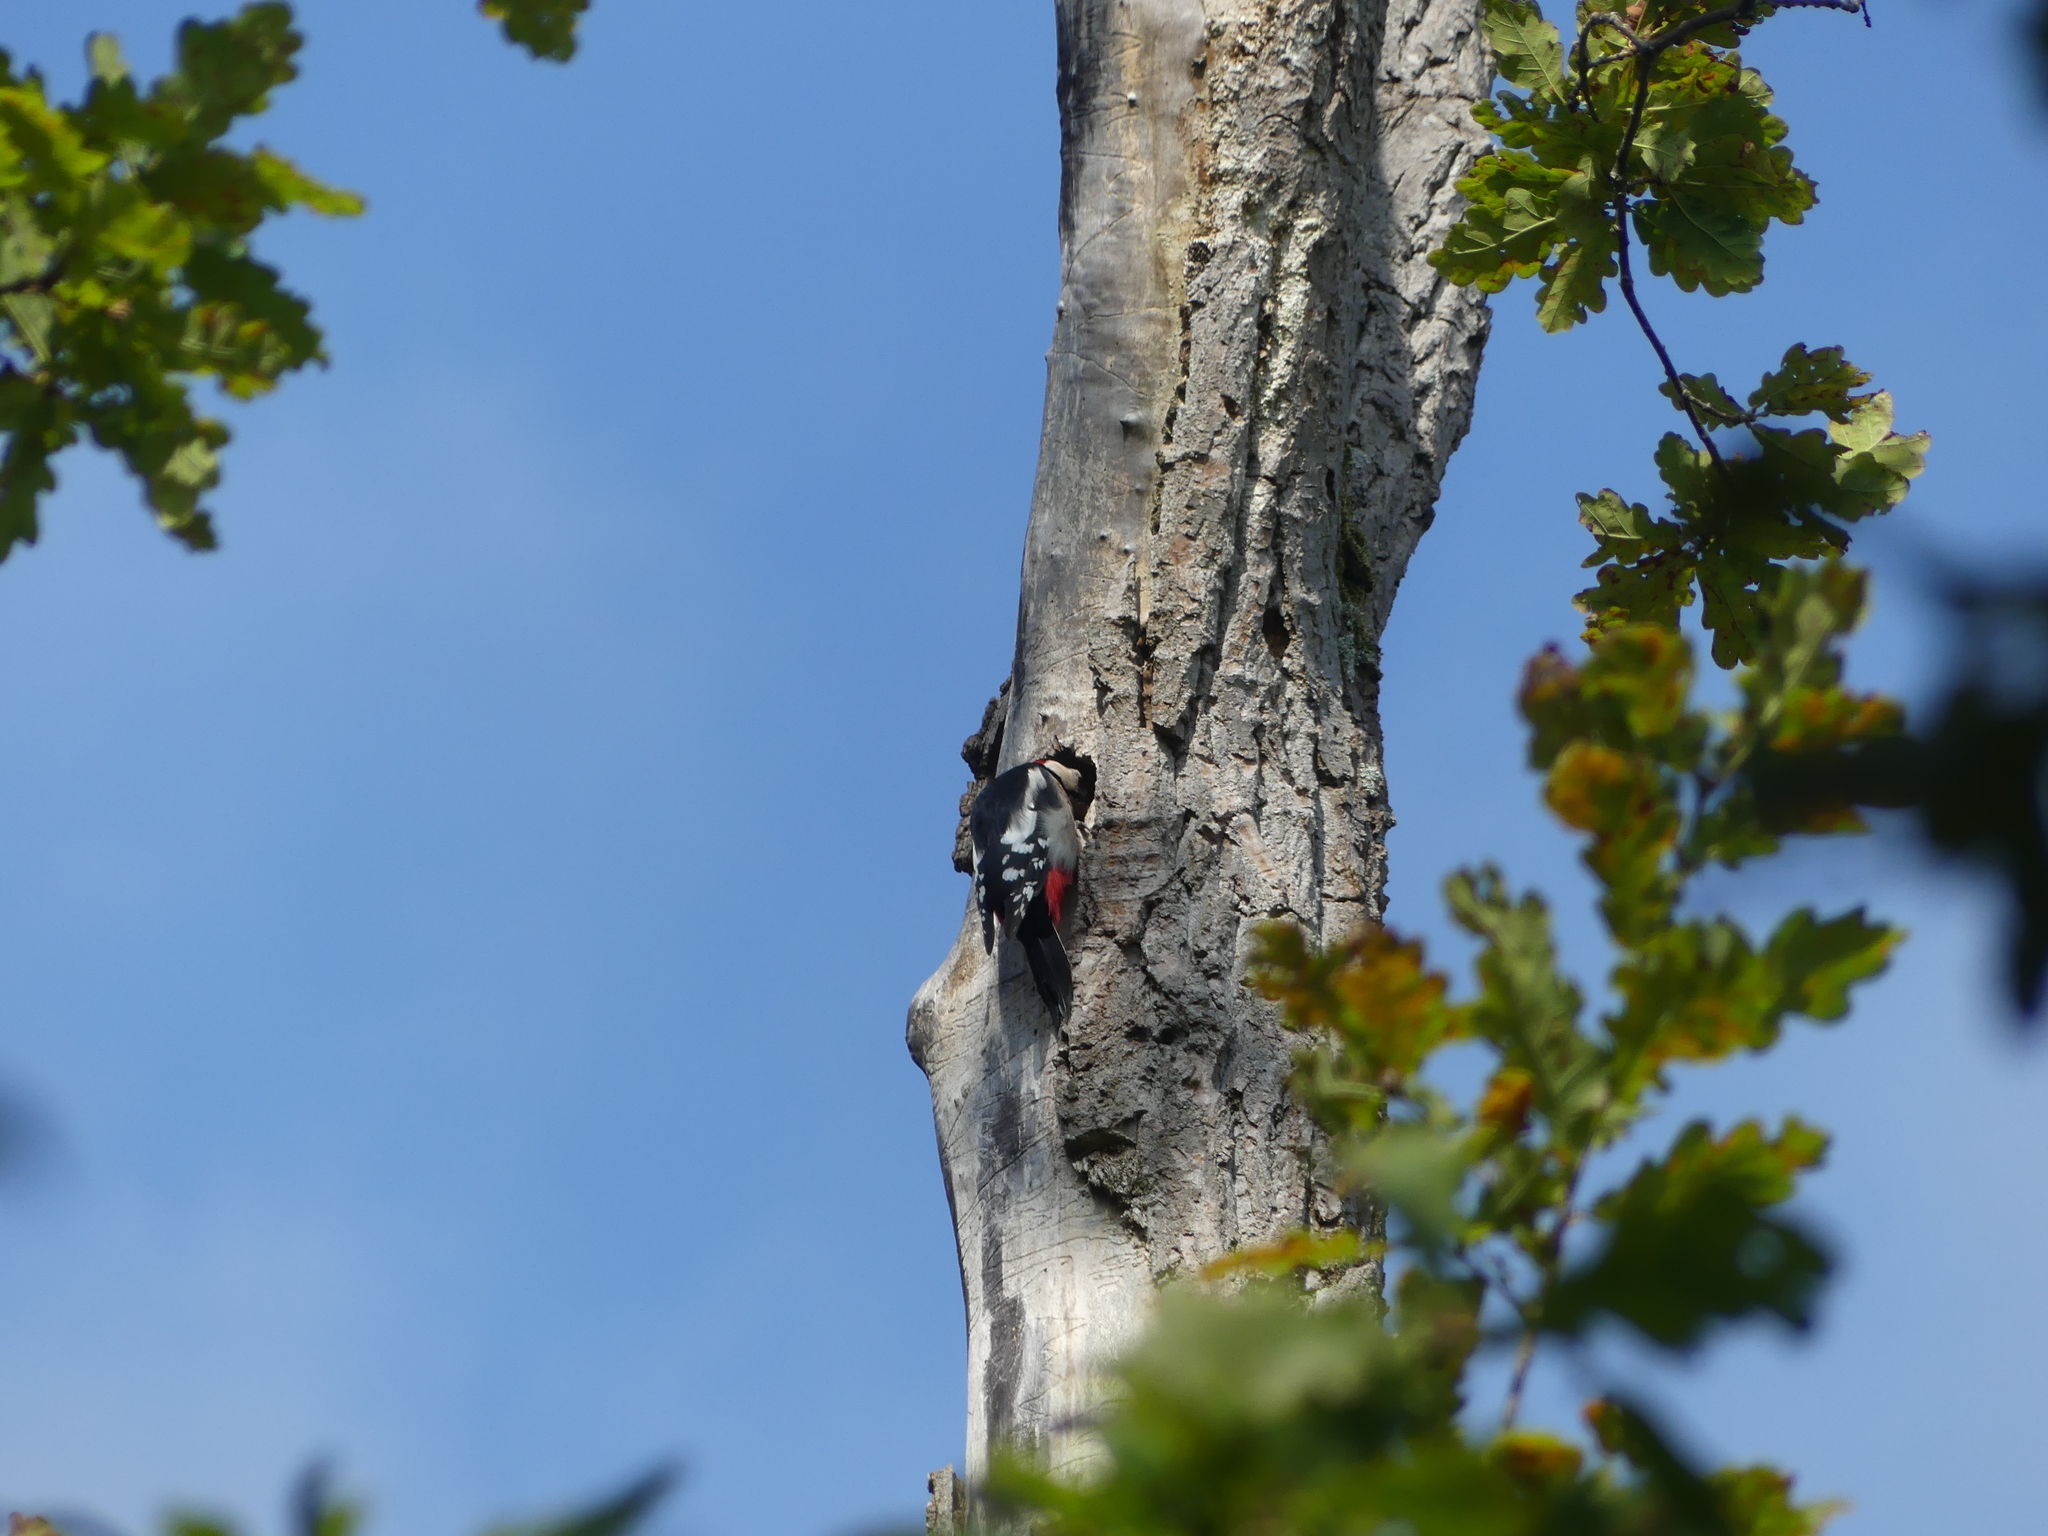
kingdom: Animalia
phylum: Chordata
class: Aves
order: Piciformes
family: Picidae
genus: Dendrocopos
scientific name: Dendrocopos major
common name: Great spotted woodpecker
